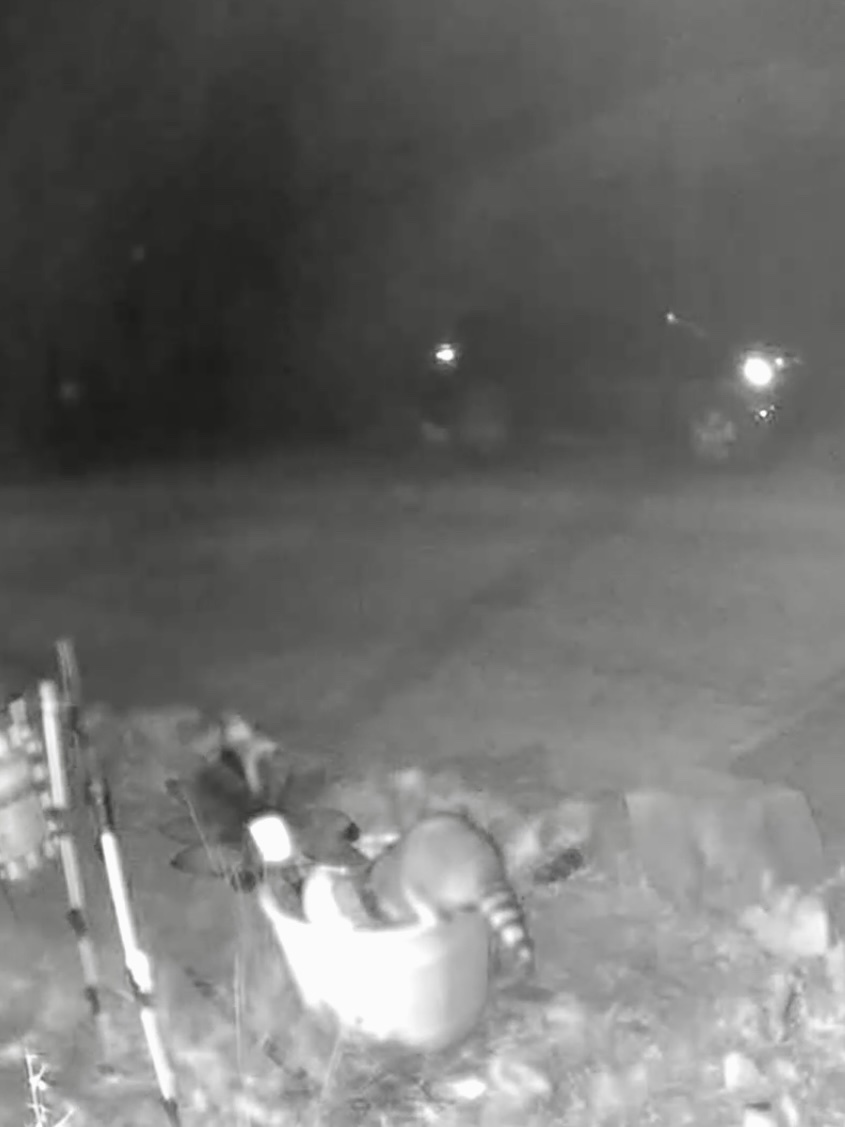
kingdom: Animalia
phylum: Chordata
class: Mammalia
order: Carnivora
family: Procyonidae
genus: Procyon
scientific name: Procyon lotor
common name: Raccoon
